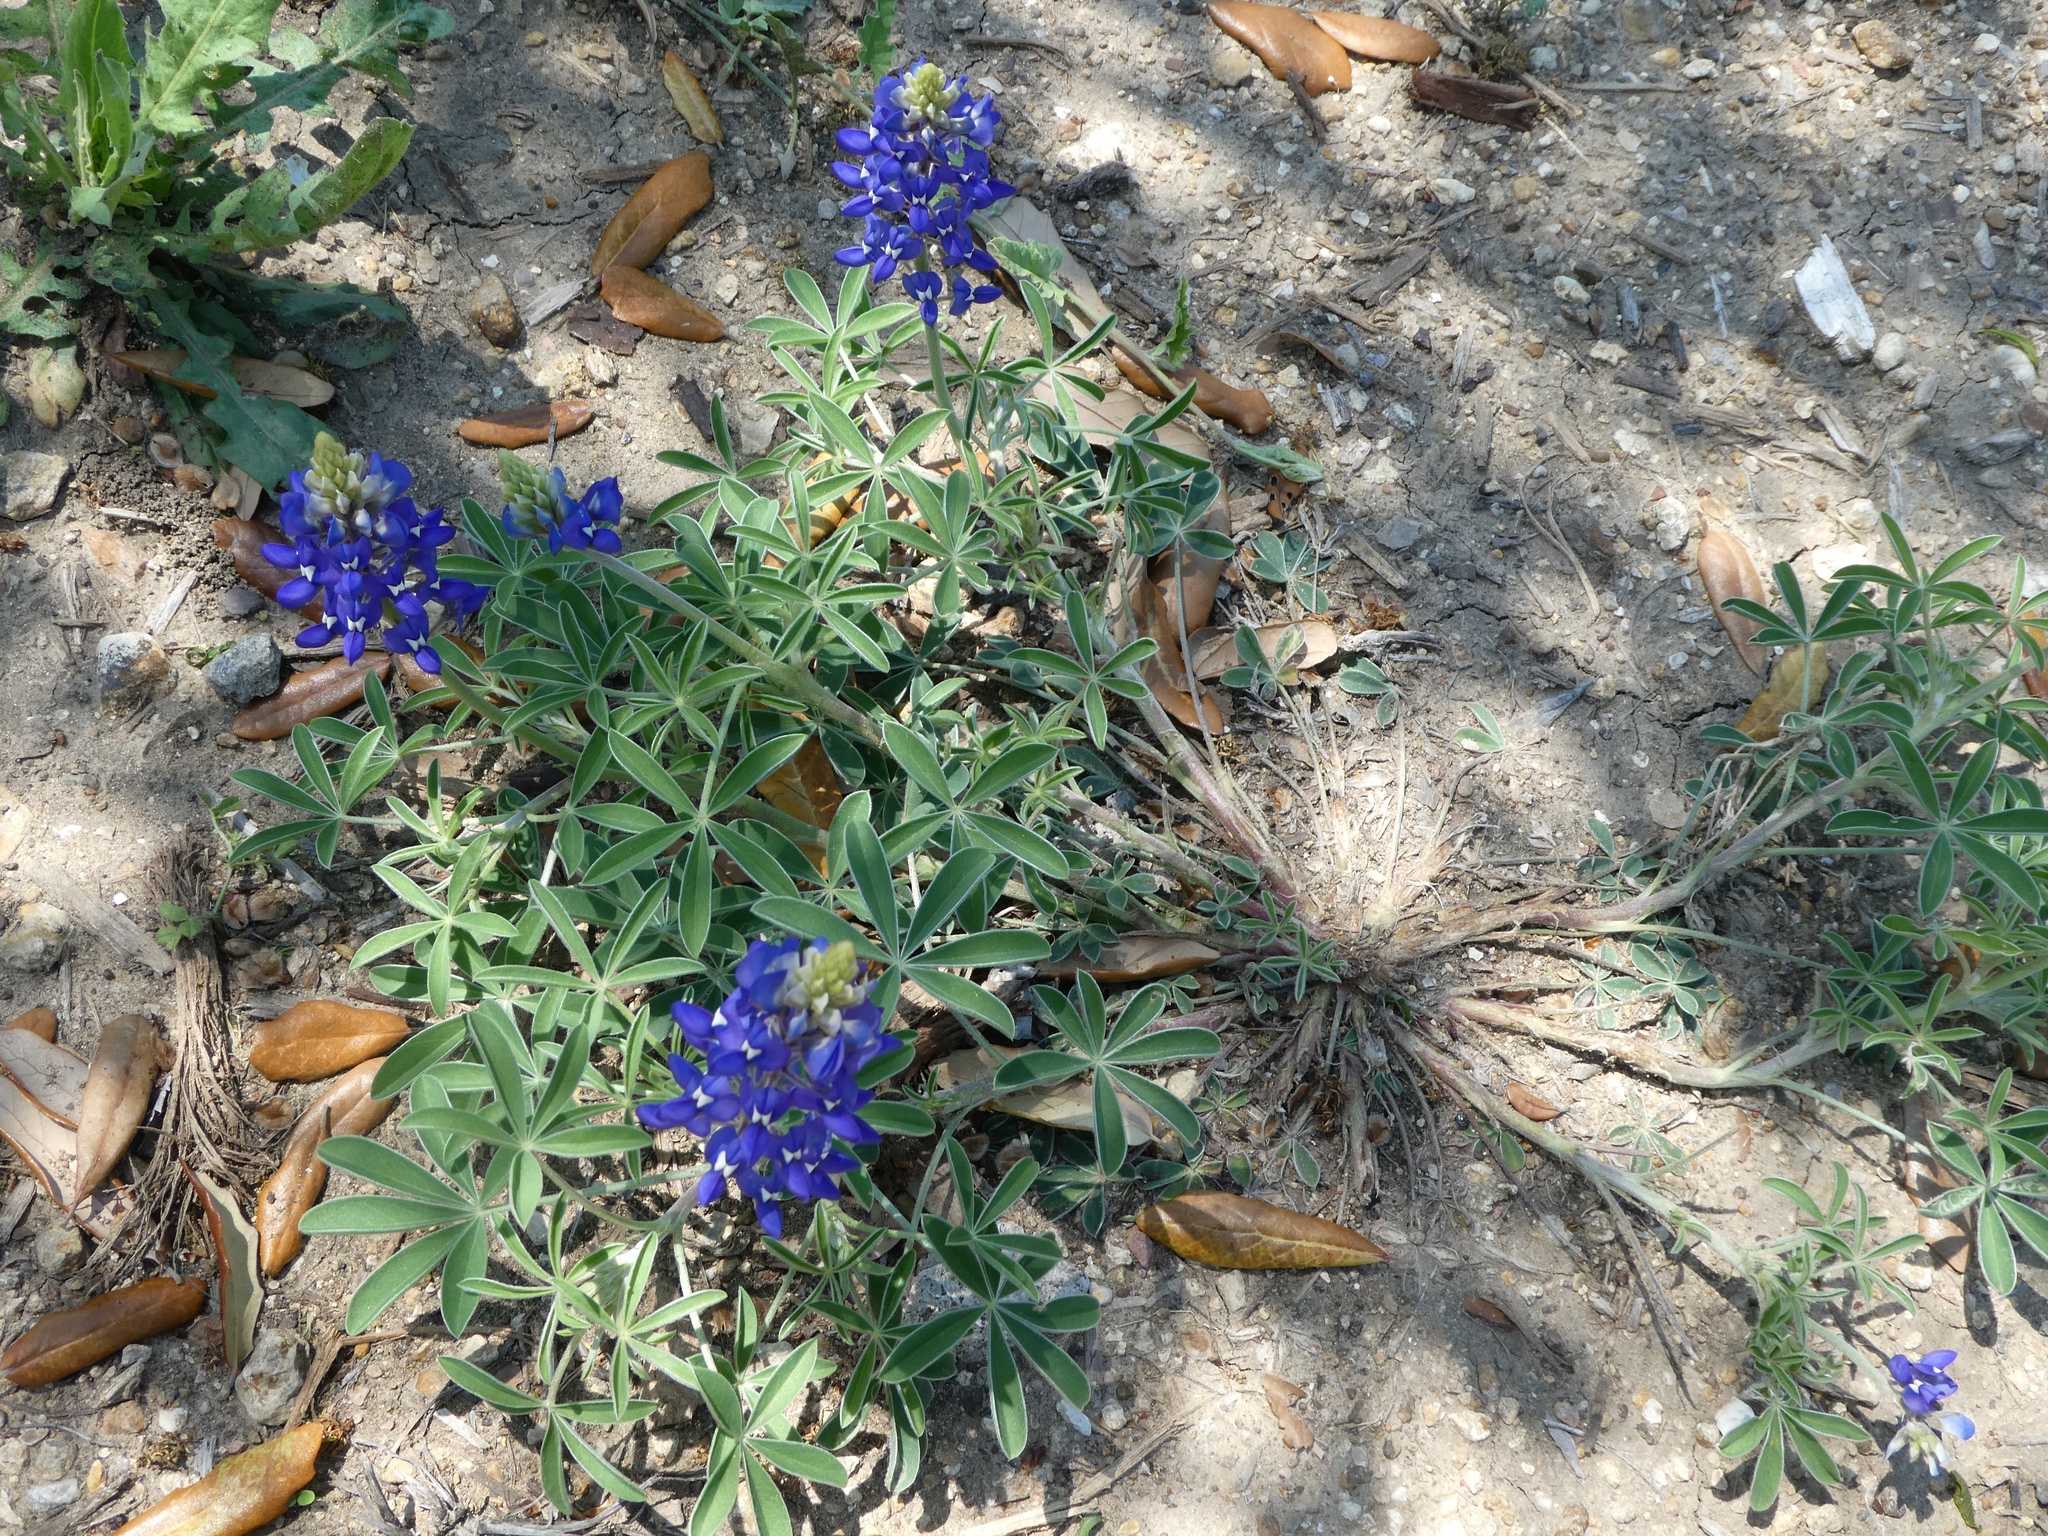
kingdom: Plantae
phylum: Tracheophyta
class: Magnoliopsida
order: Fabales
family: Fabaceae
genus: Lupinus
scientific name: Lupinus texensis
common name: Texas bluebonnet
